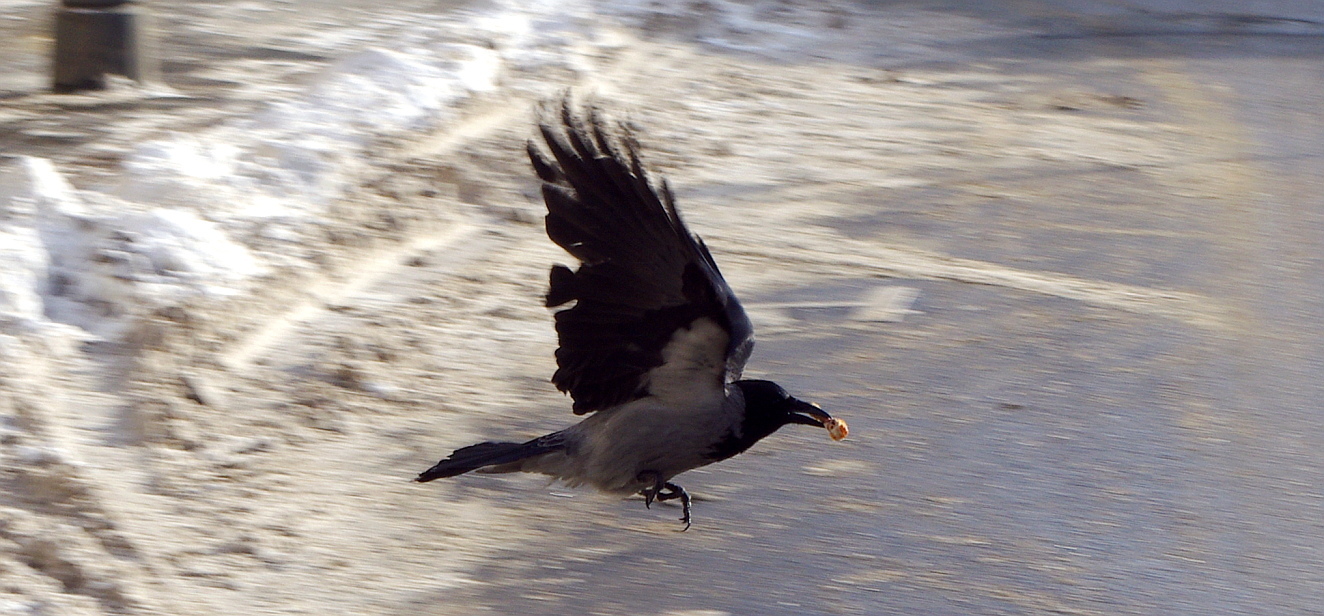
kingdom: Animalia
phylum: Chordata
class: Aves
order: Passeriformes
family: Corvidae
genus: Corvus
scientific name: Corvus cornix
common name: Hooded crow
